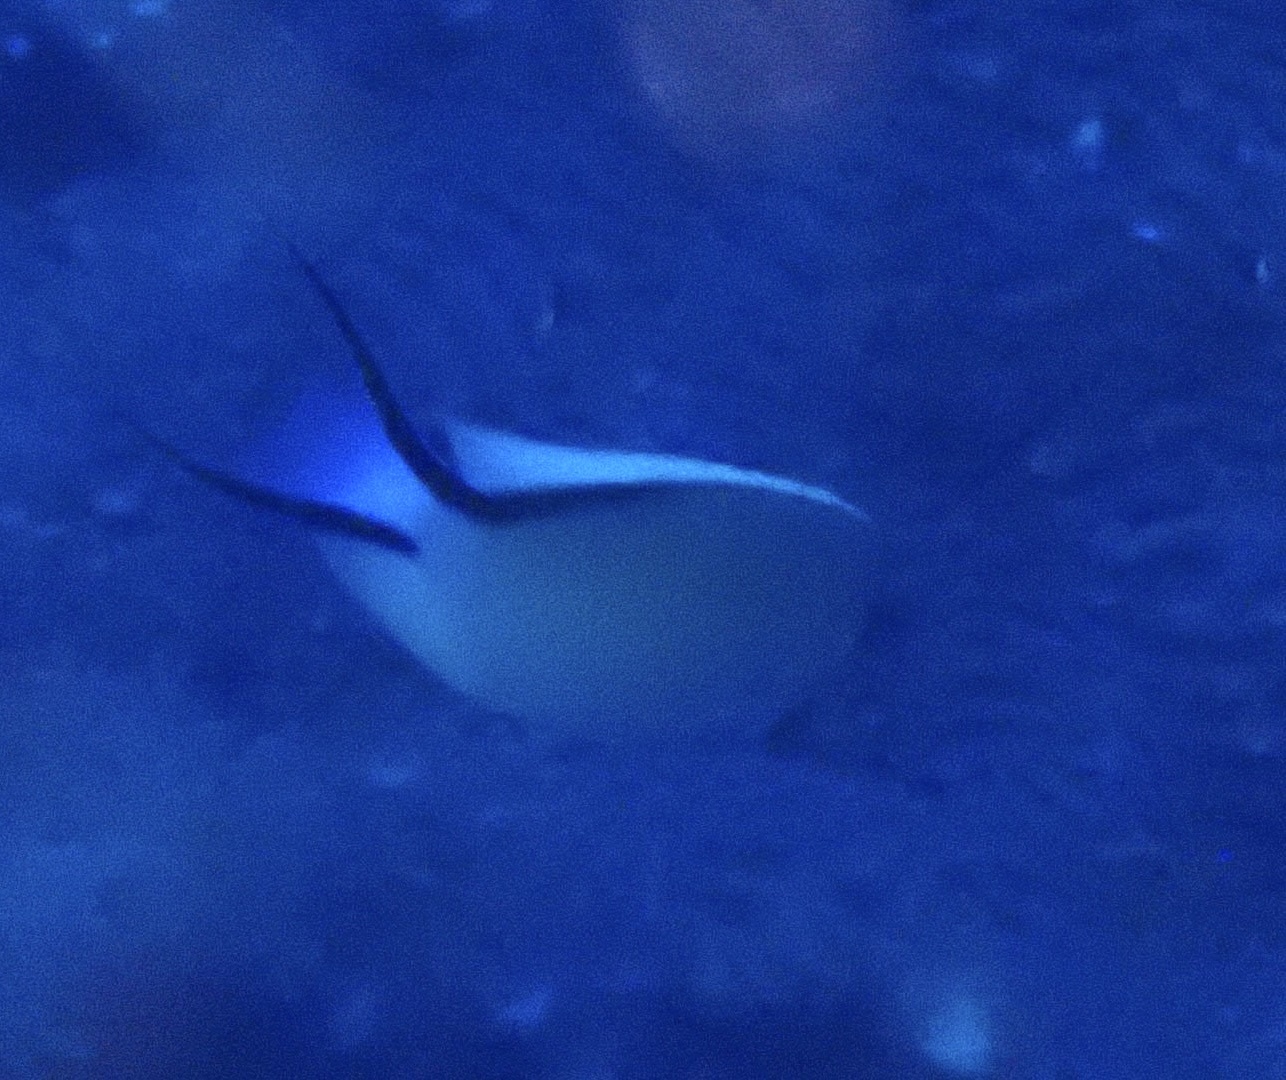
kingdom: Animalia
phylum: Chordata
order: Perciformes
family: Pomacanthidae
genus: Genicanthus
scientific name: Genicanthus caudovittatus
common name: Lyretail angelfish
